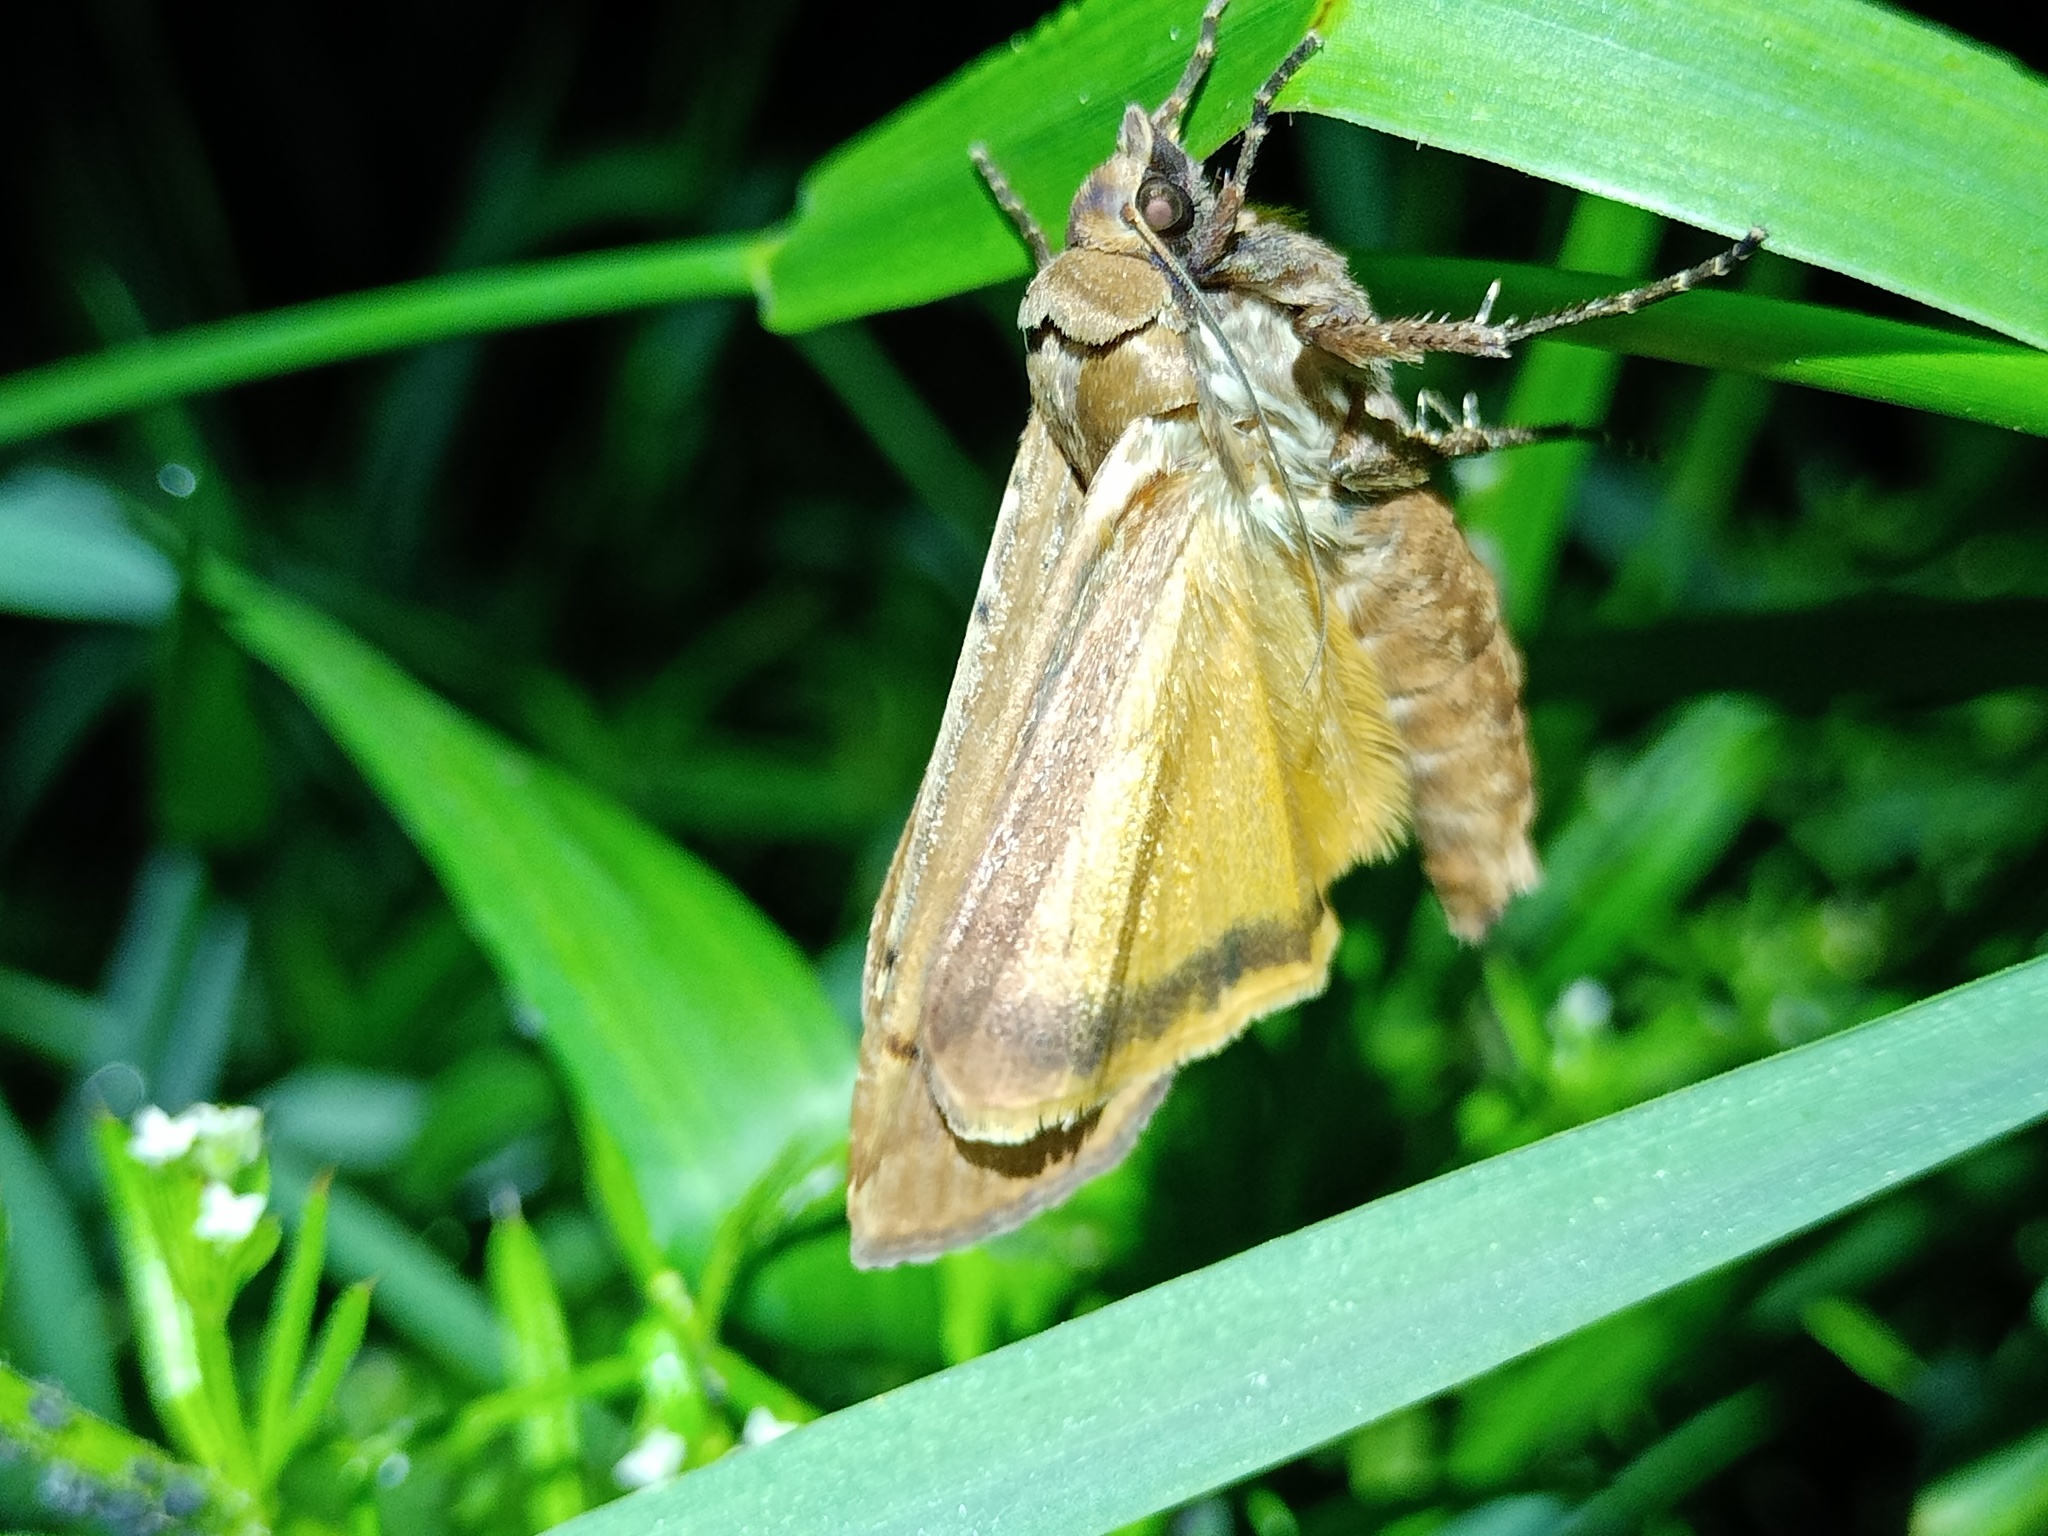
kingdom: Animalia
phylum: Arthropoda
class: Insecta
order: Lepidoptera
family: Noctuidae
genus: Noctua
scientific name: Noctua pronuba
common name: Large yellow underwing
